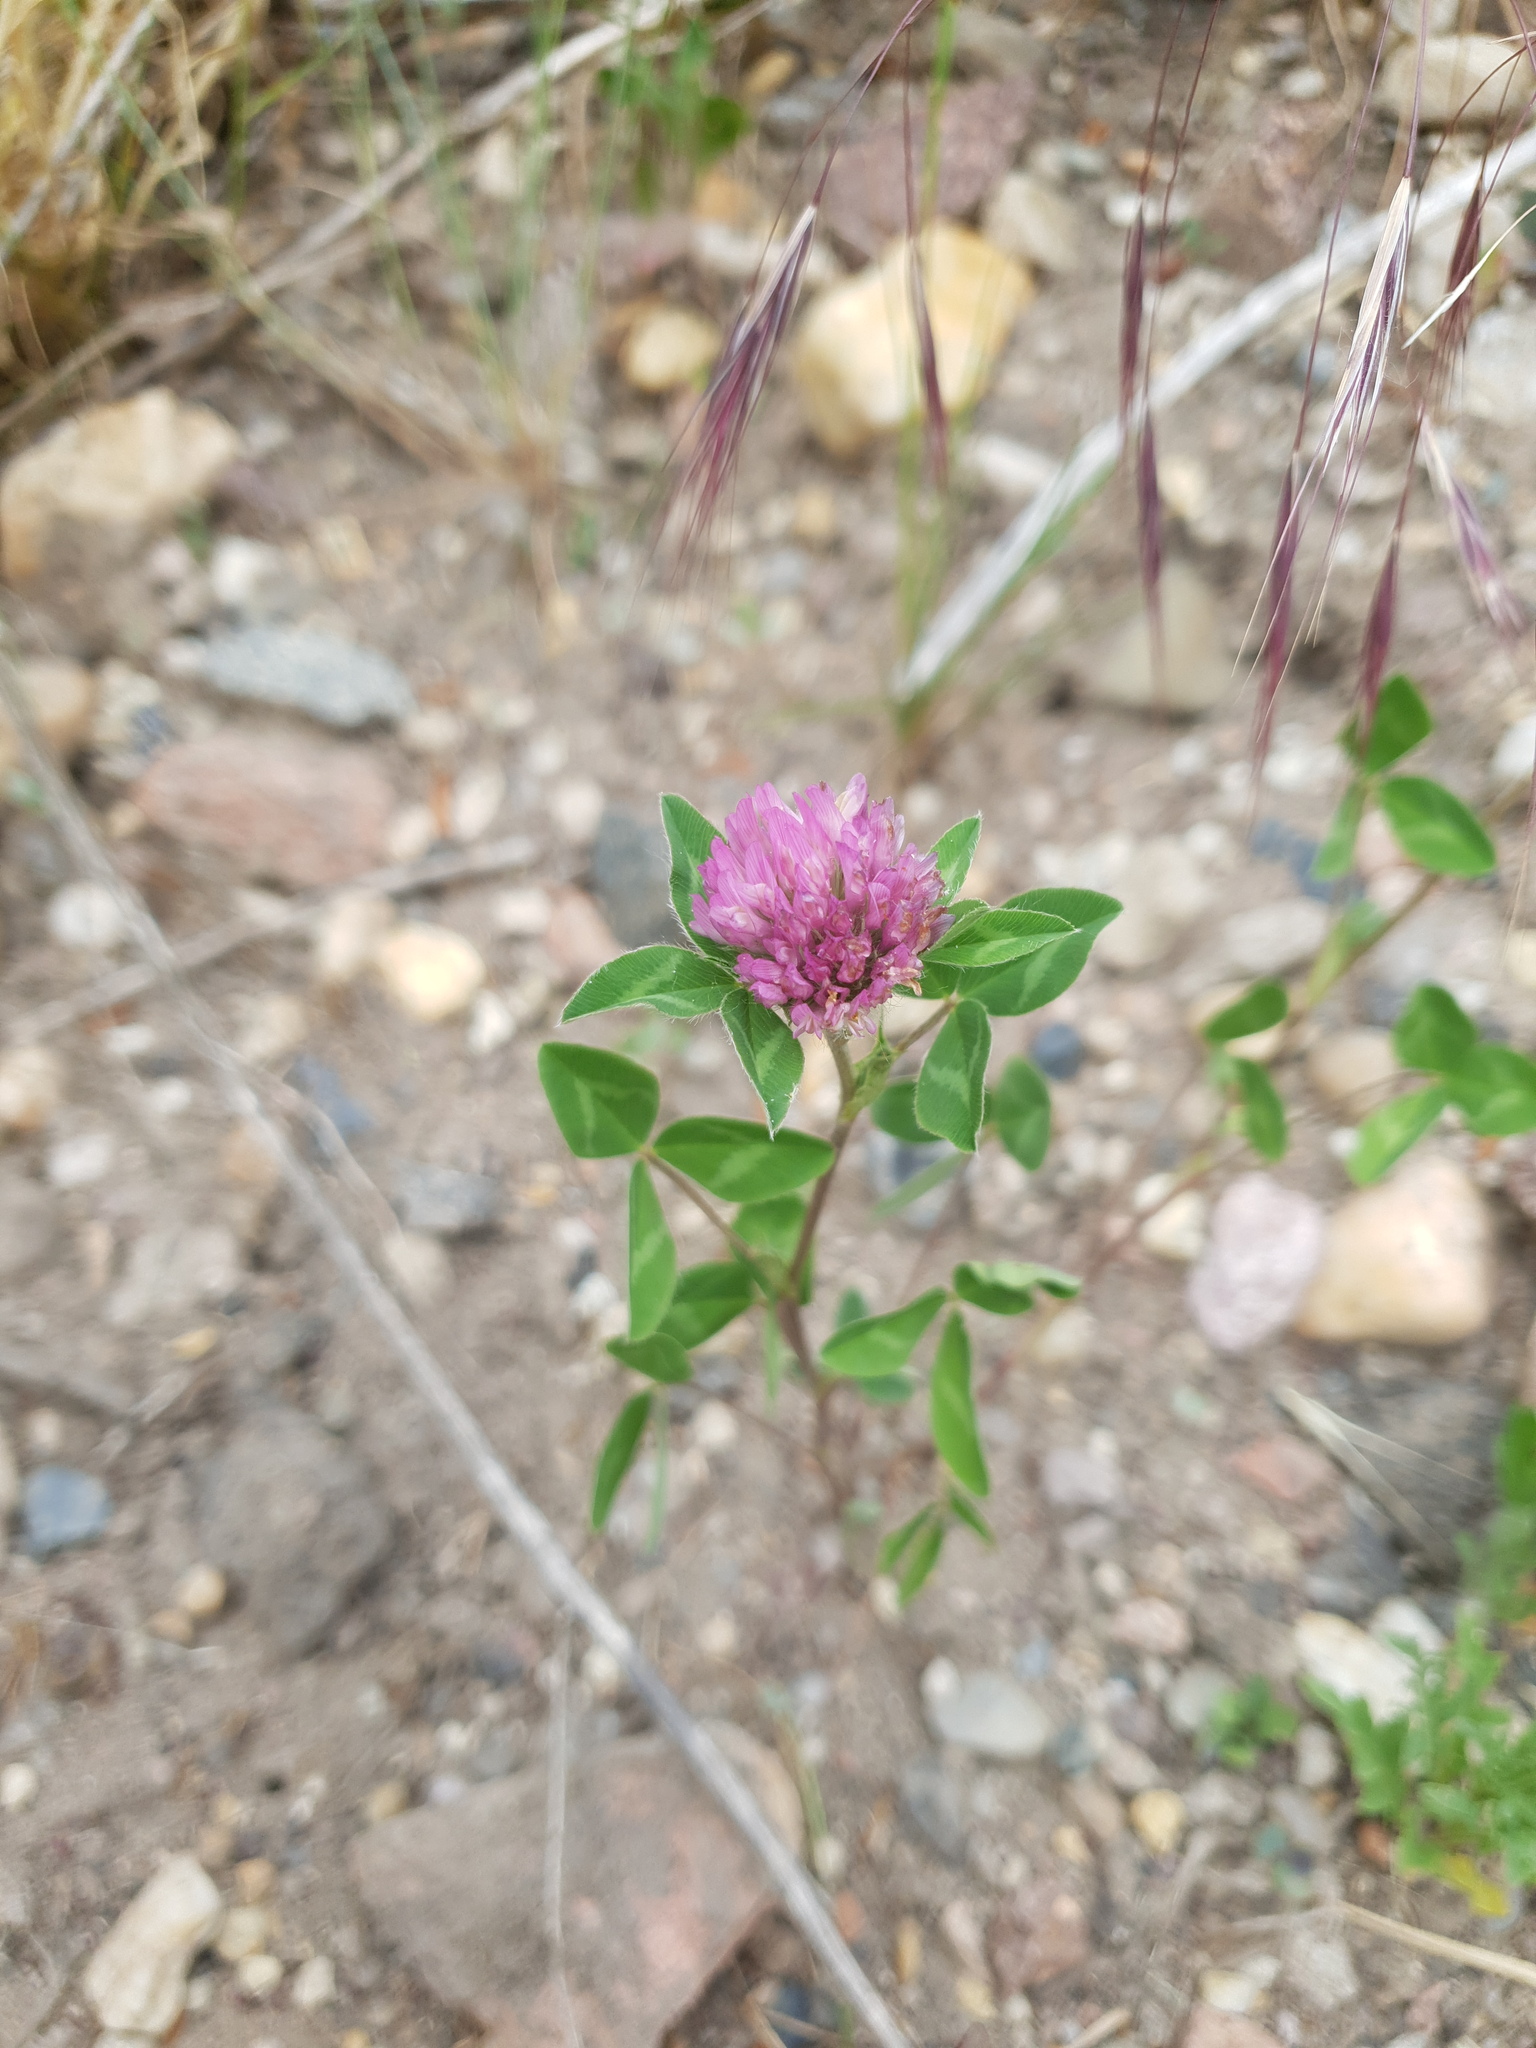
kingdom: Plantae
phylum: Tracheophyta
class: Magnoliopsida
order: Fabales
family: Fabaceae
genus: Trifolium
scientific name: Trifolium pratense
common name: Red clover
